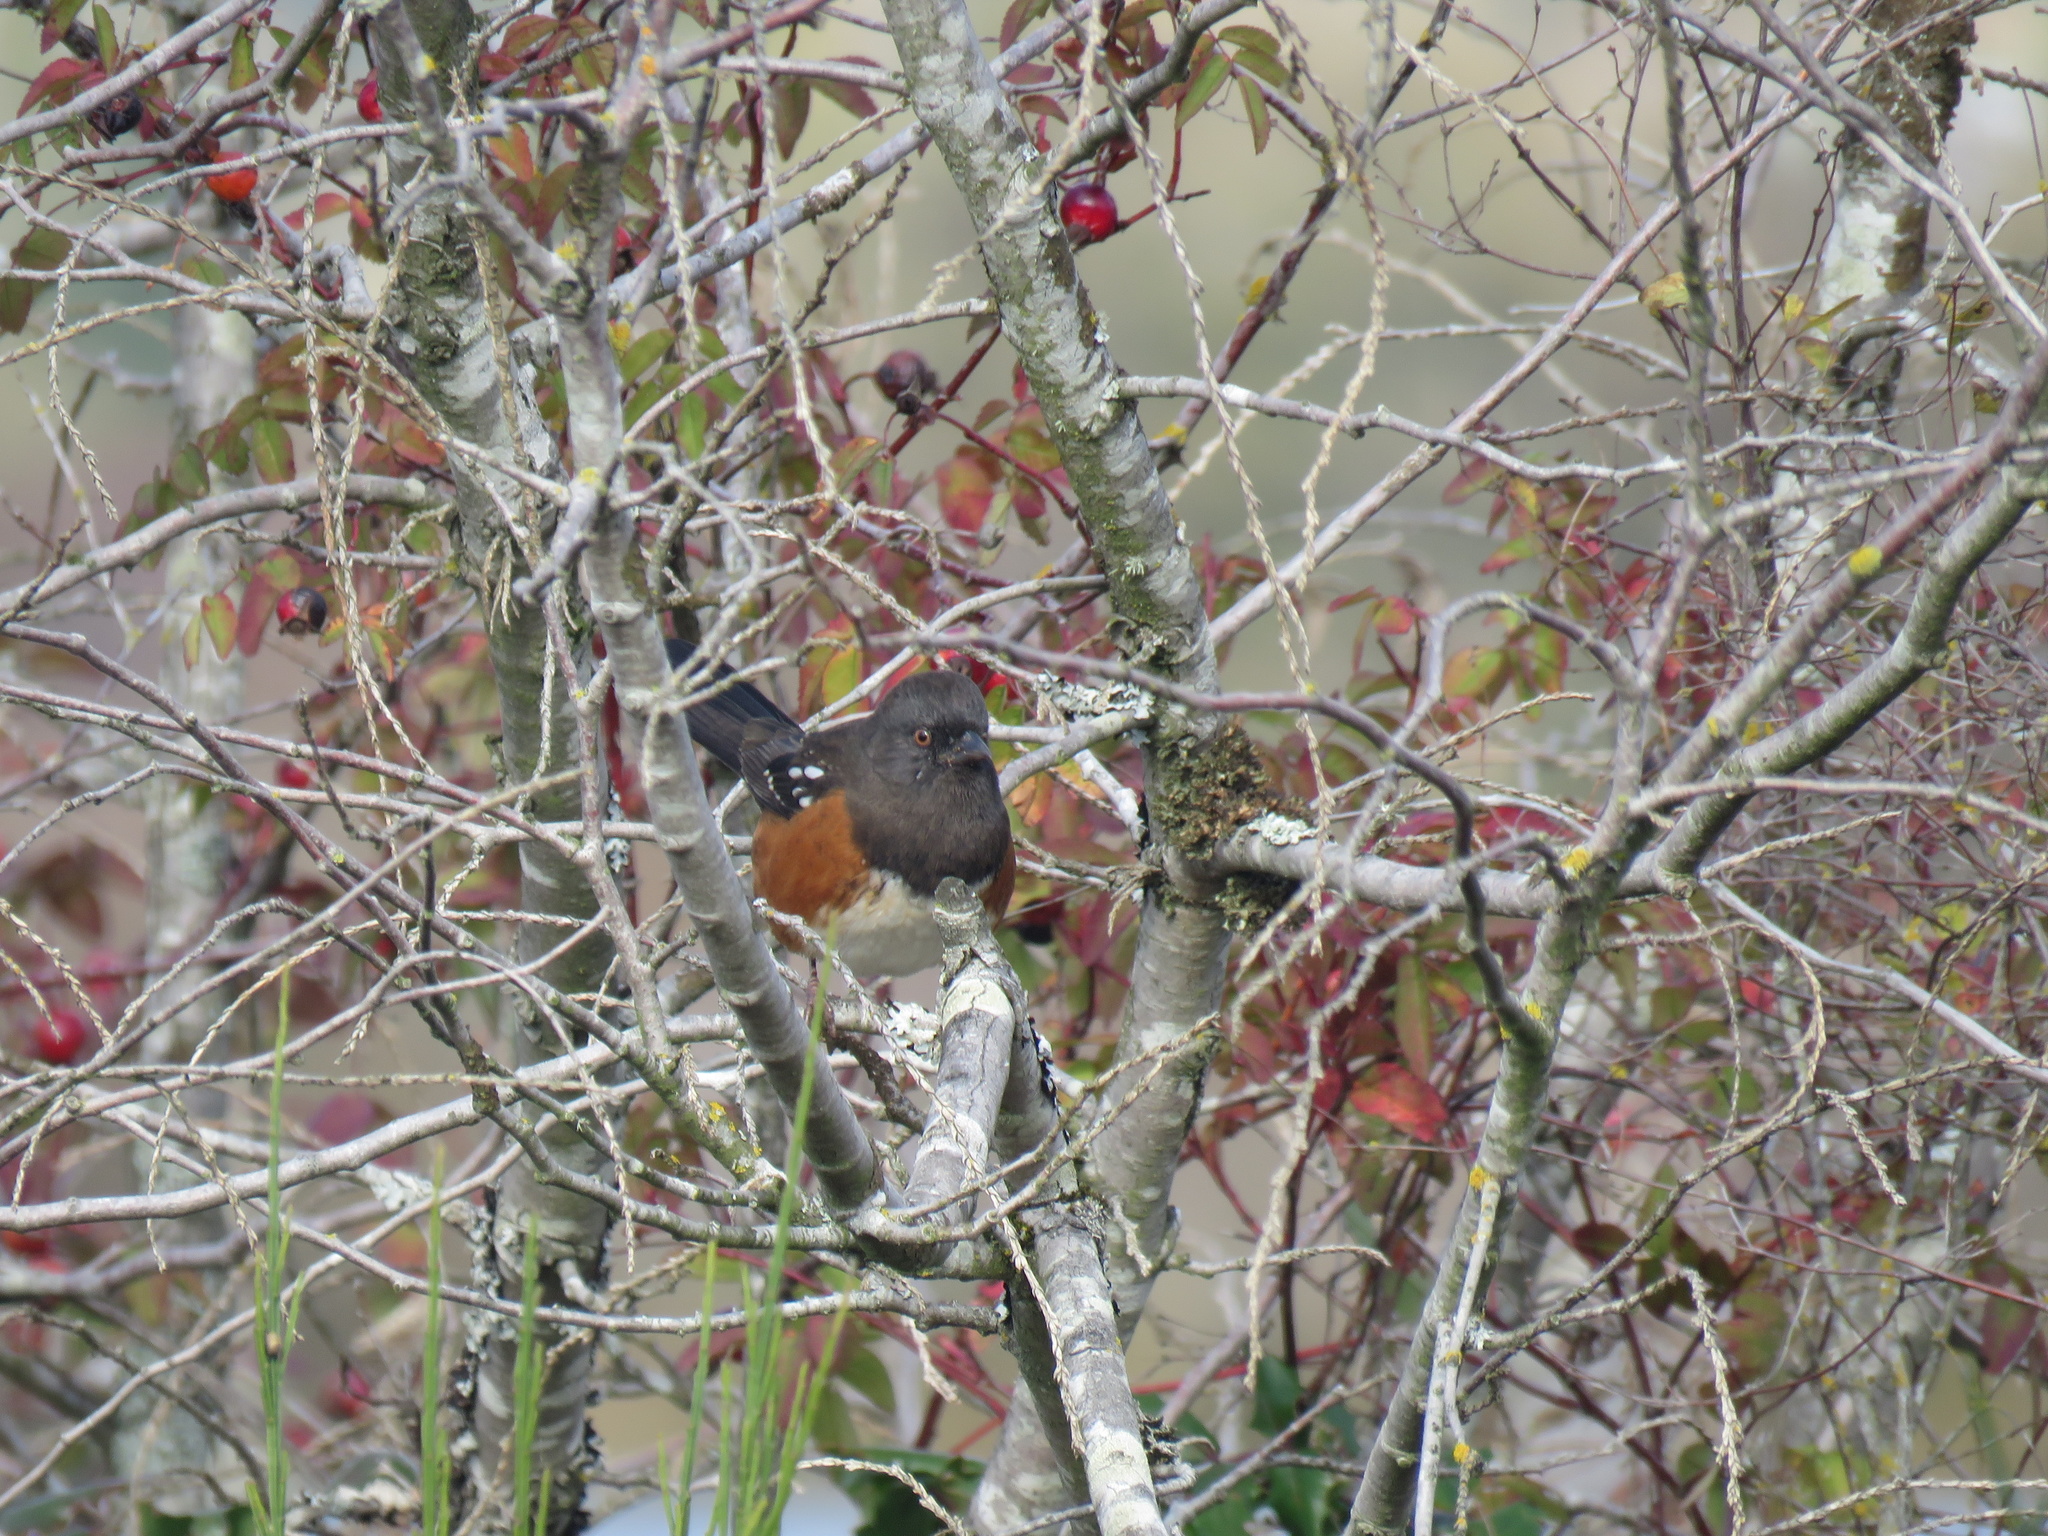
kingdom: Animalia
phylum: Chordata
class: Aves
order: Passeriformes
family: Passerellidae
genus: Pipilo
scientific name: Pipilo maculatus
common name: Spotted towhee
